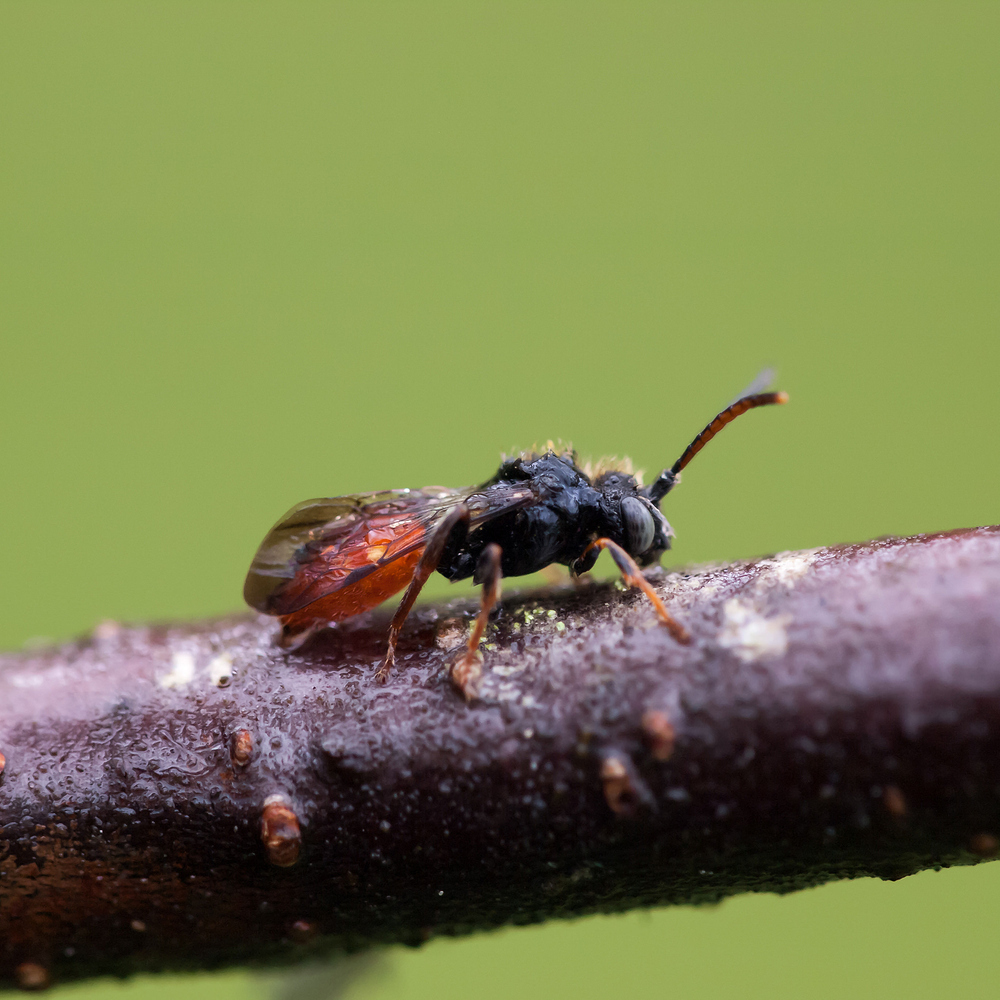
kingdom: Animalia
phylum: Arthropoda
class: Insecta
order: Hymenoptera
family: Apidae
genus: Nomada
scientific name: Nomada fabriciana
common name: Fabricius' nomad bee
